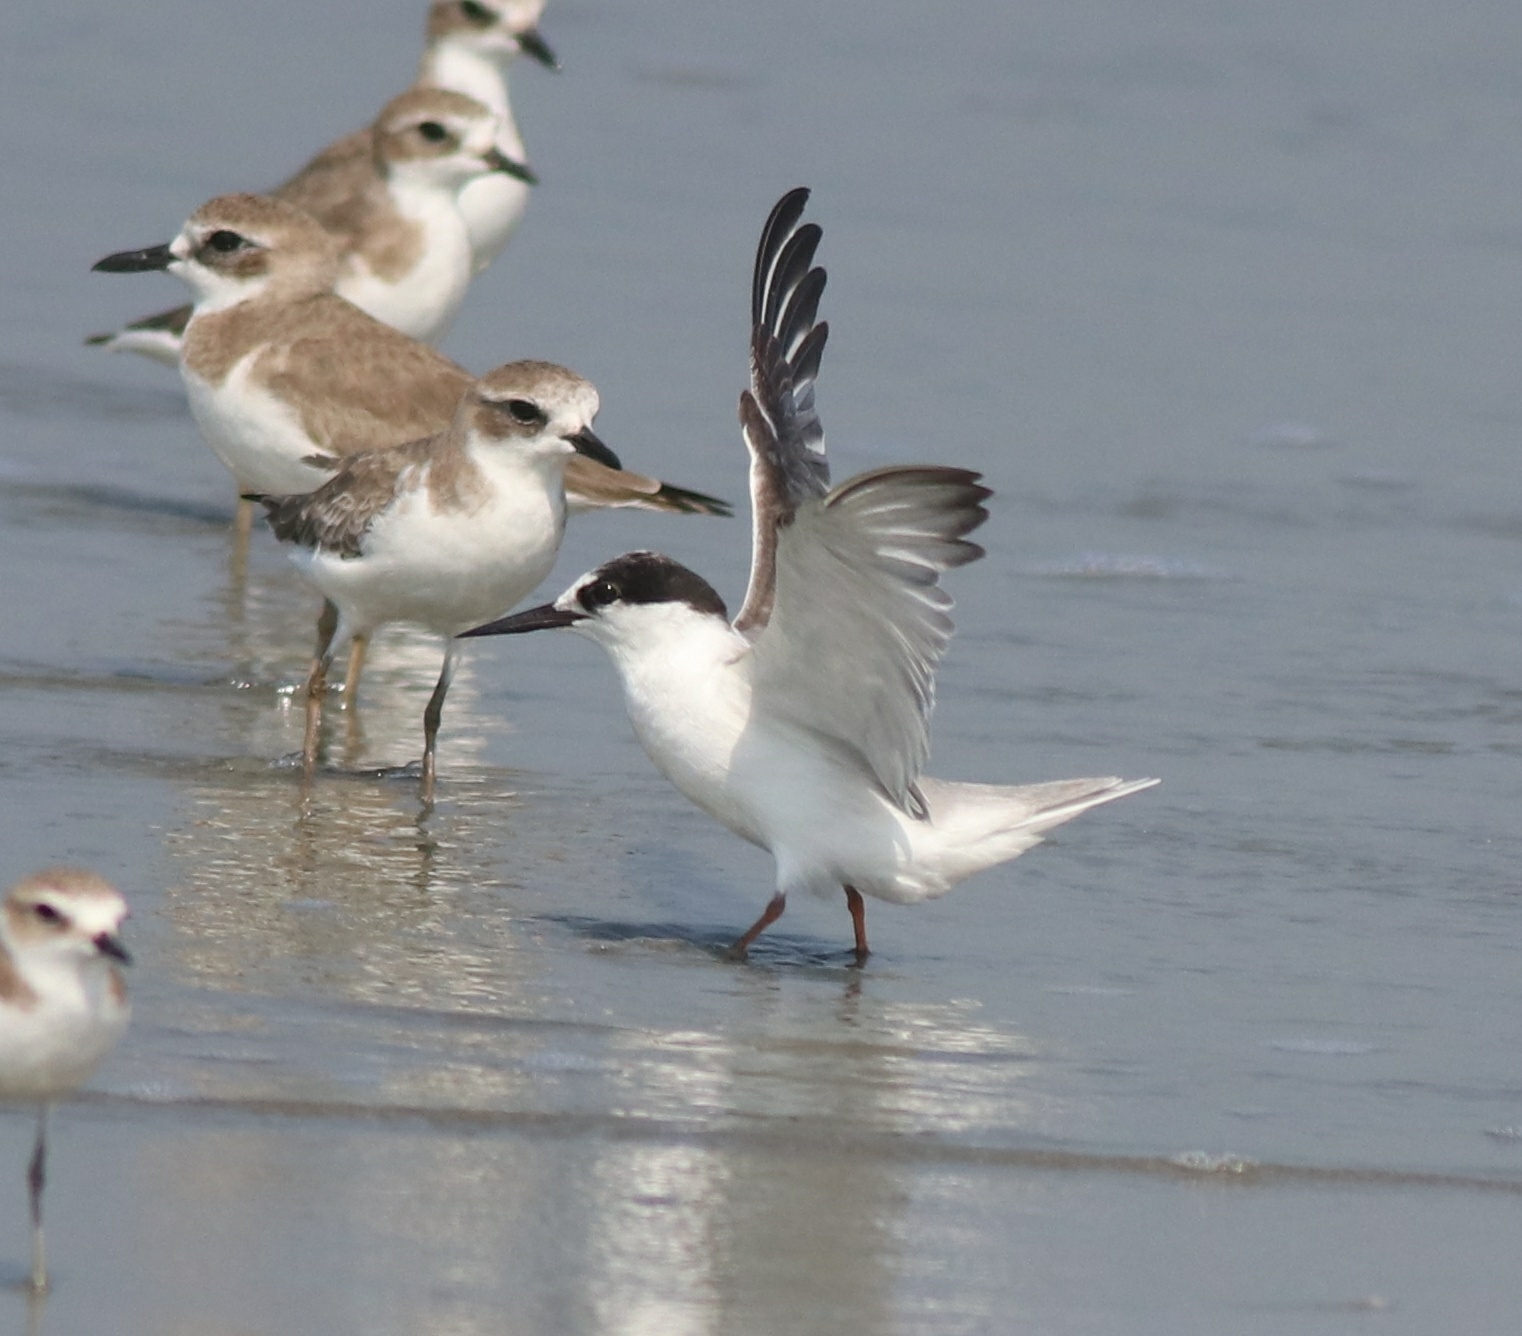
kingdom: Animalia
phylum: Chordata
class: Aves
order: Charadriiformes
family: Laridae
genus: Sternula
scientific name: Sternula albifrons
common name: Little tern
